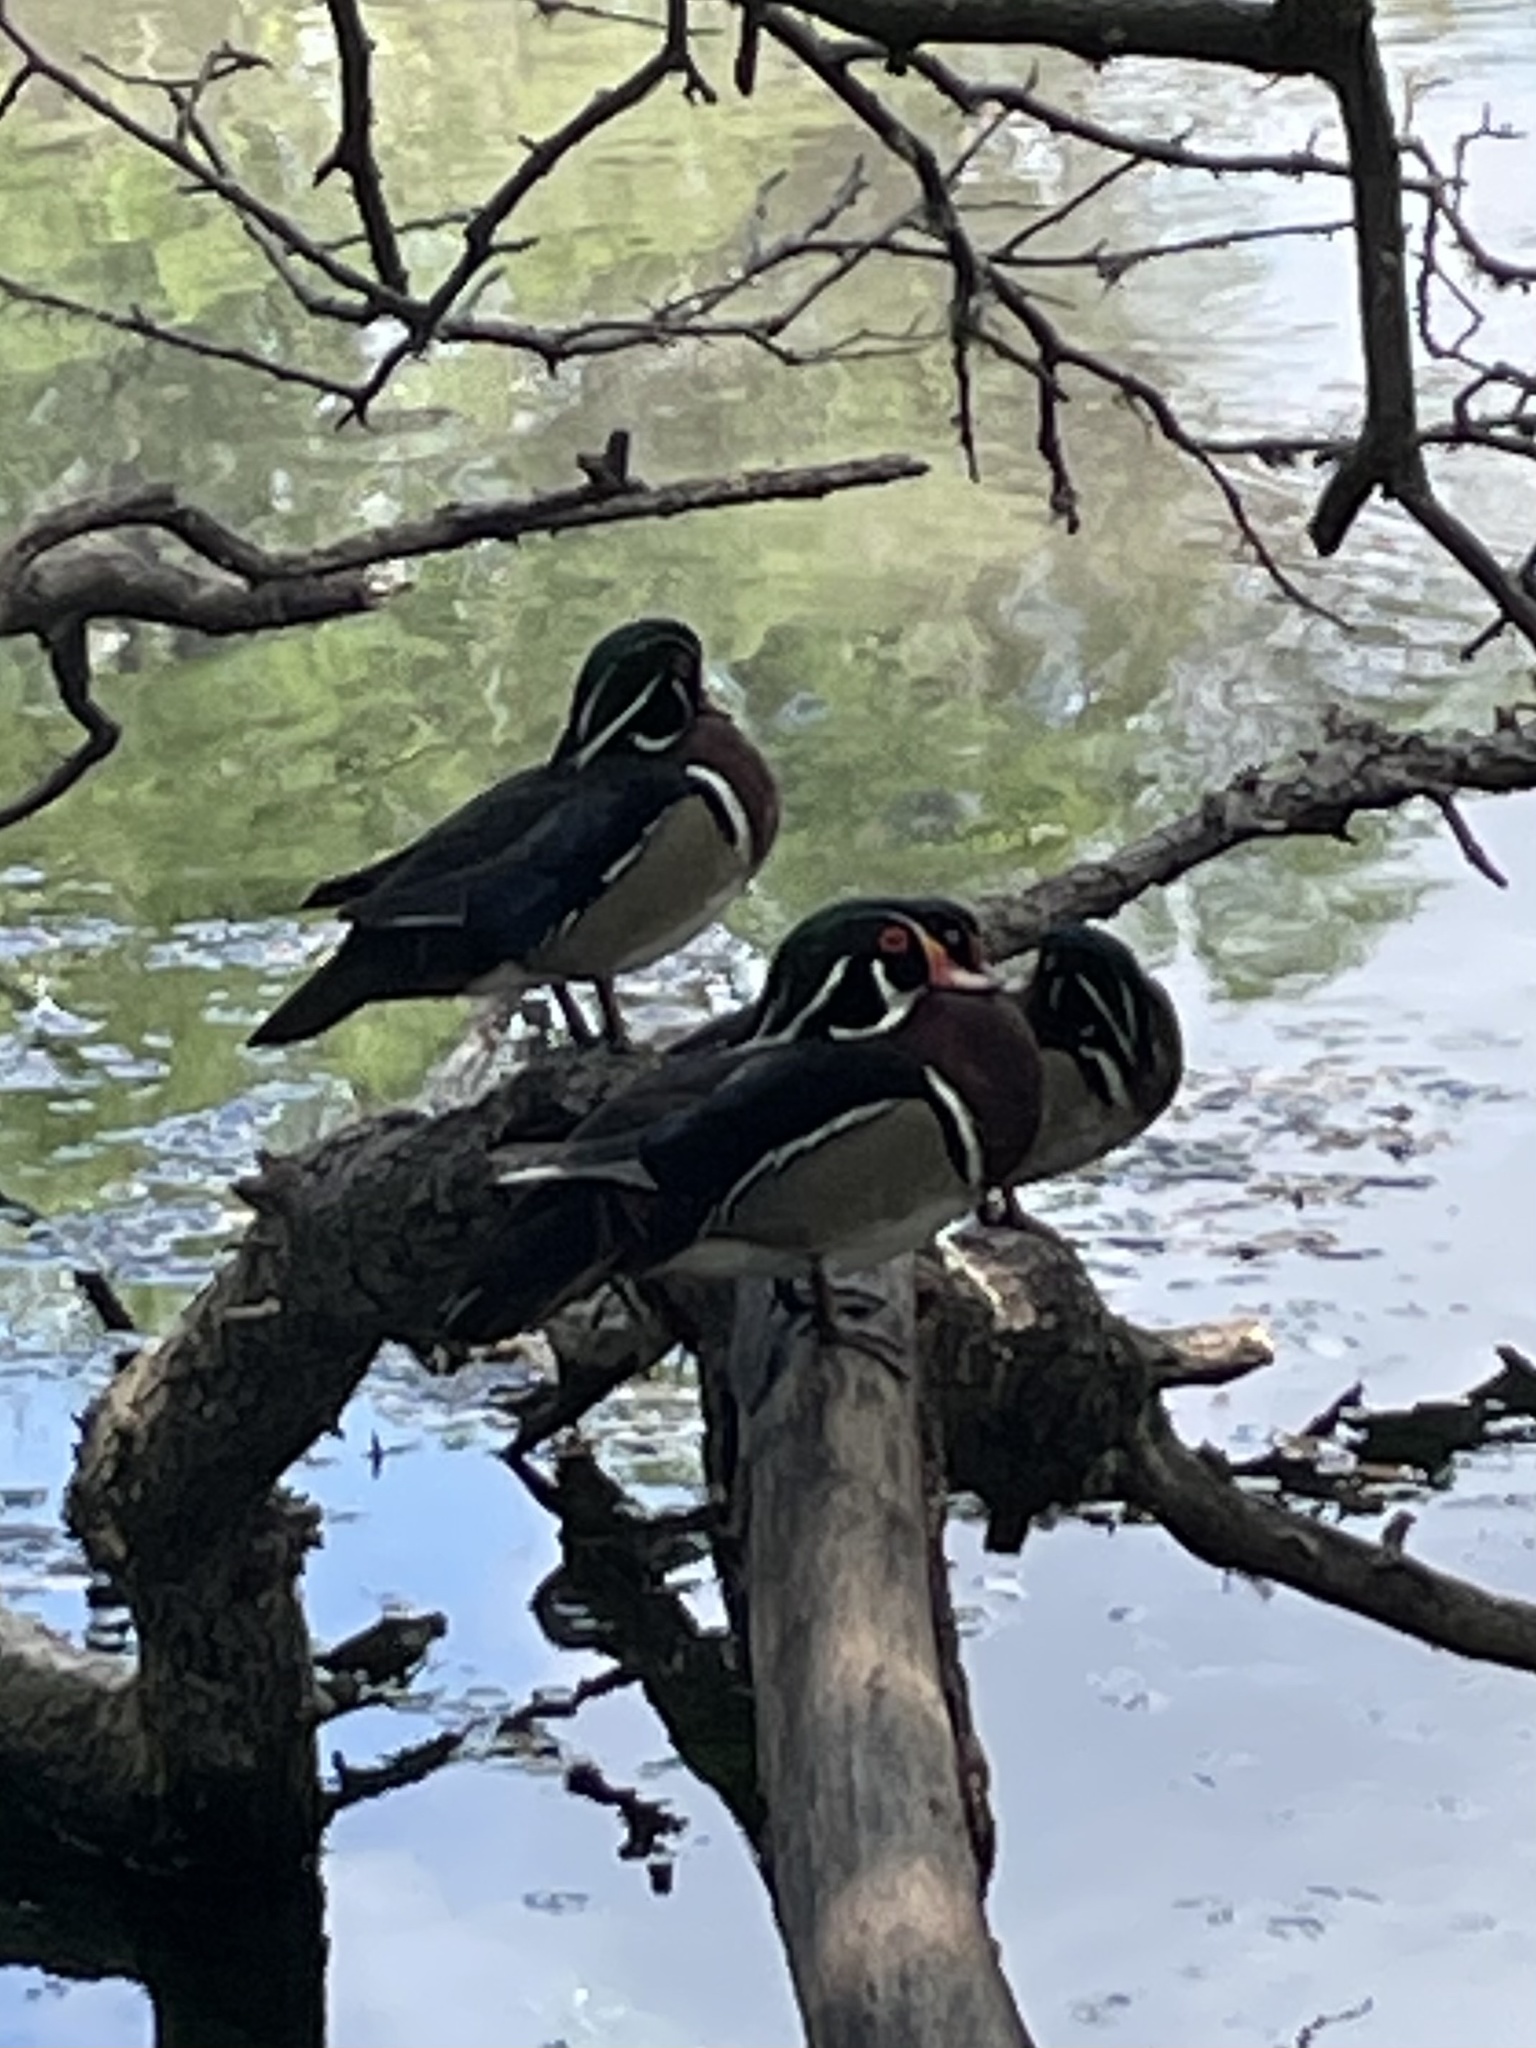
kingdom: Animalia
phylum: Chordata
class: Aves
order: Anseriformes
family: Anatidae
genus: Aix
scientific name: Aix sponsa
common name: Wood duck
